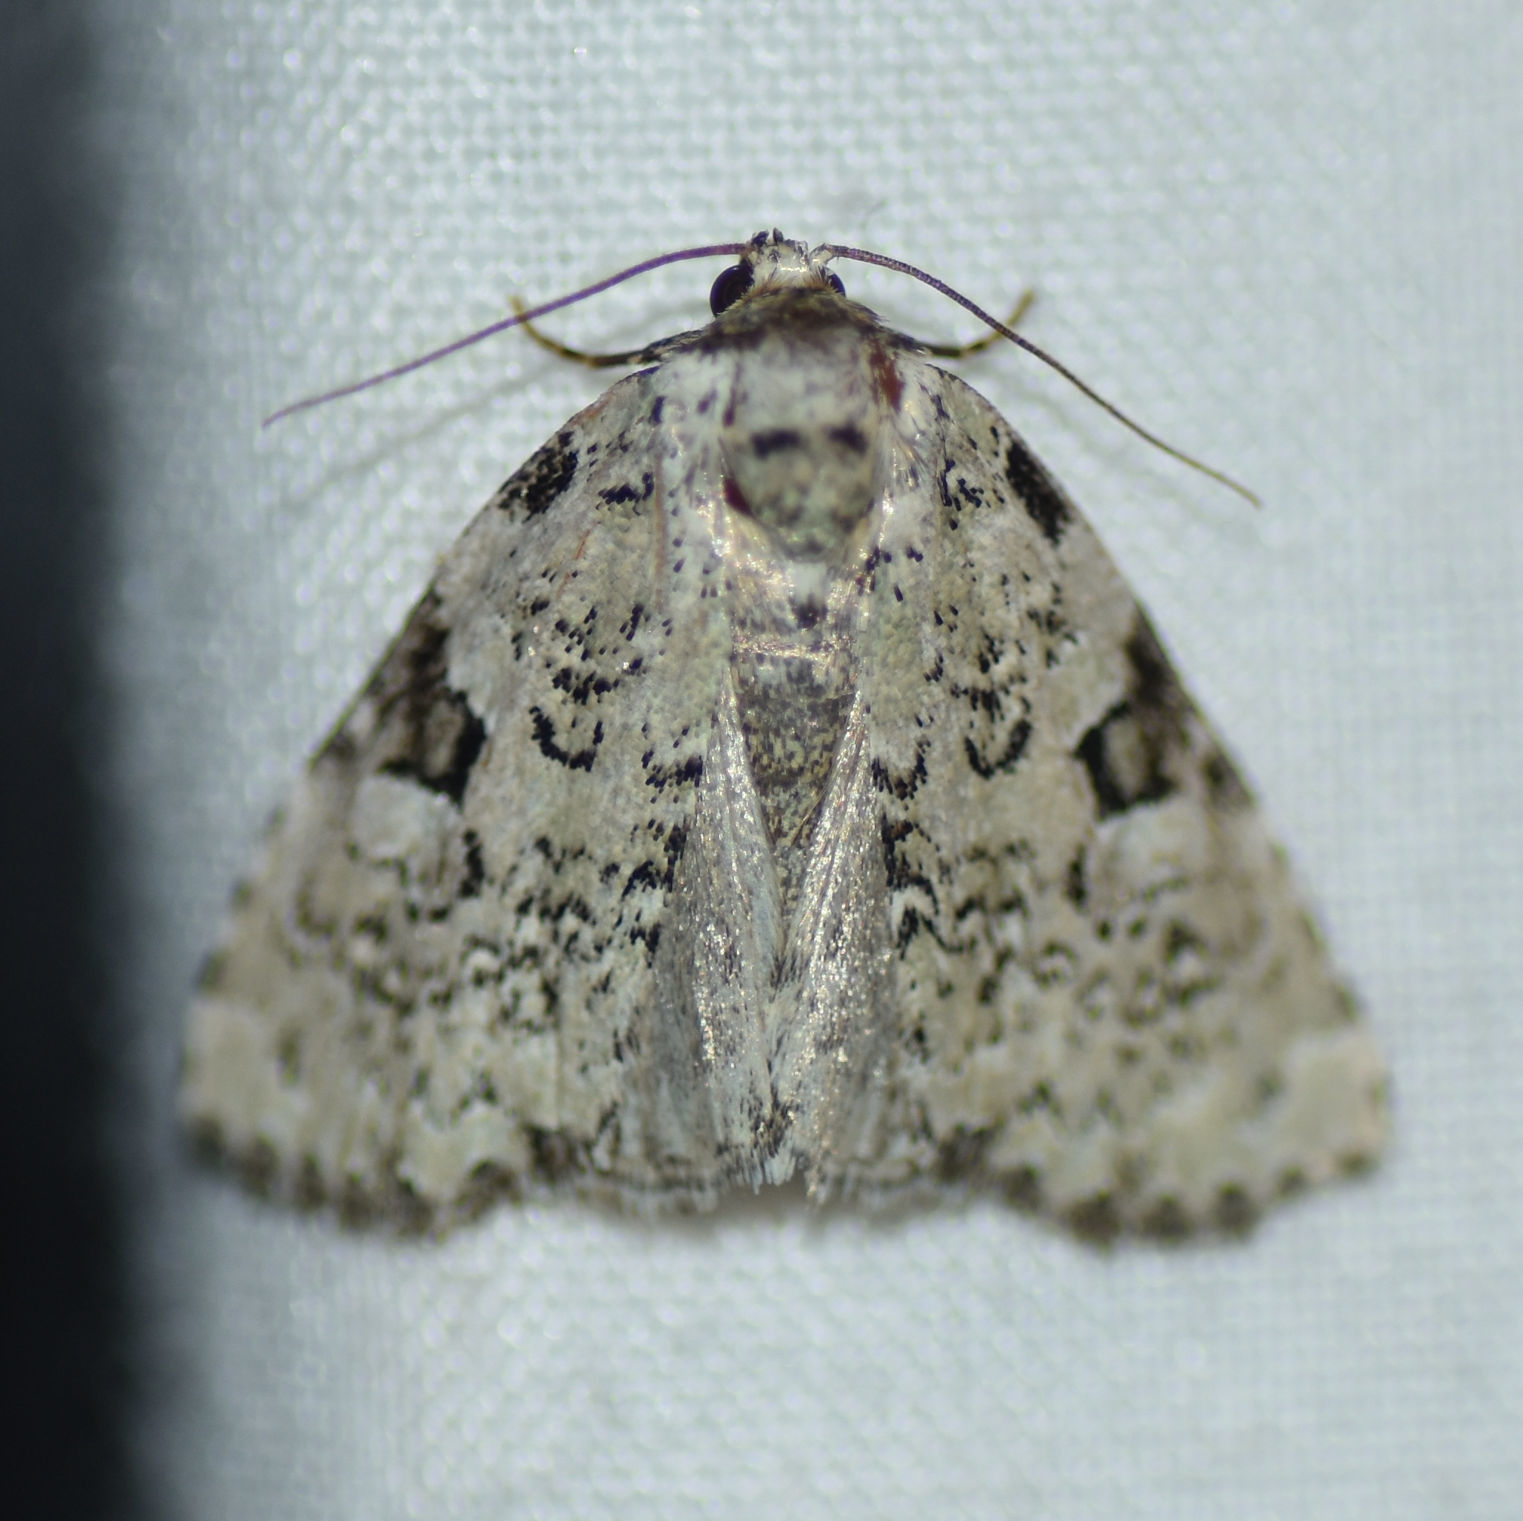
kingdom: Animalia
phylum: Arthropoda
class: Insecta
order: Lepidoptera
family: Noctuidae
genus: Leuconycta
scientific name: Leuconycta diphteroides
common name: Green leuconycta moth
